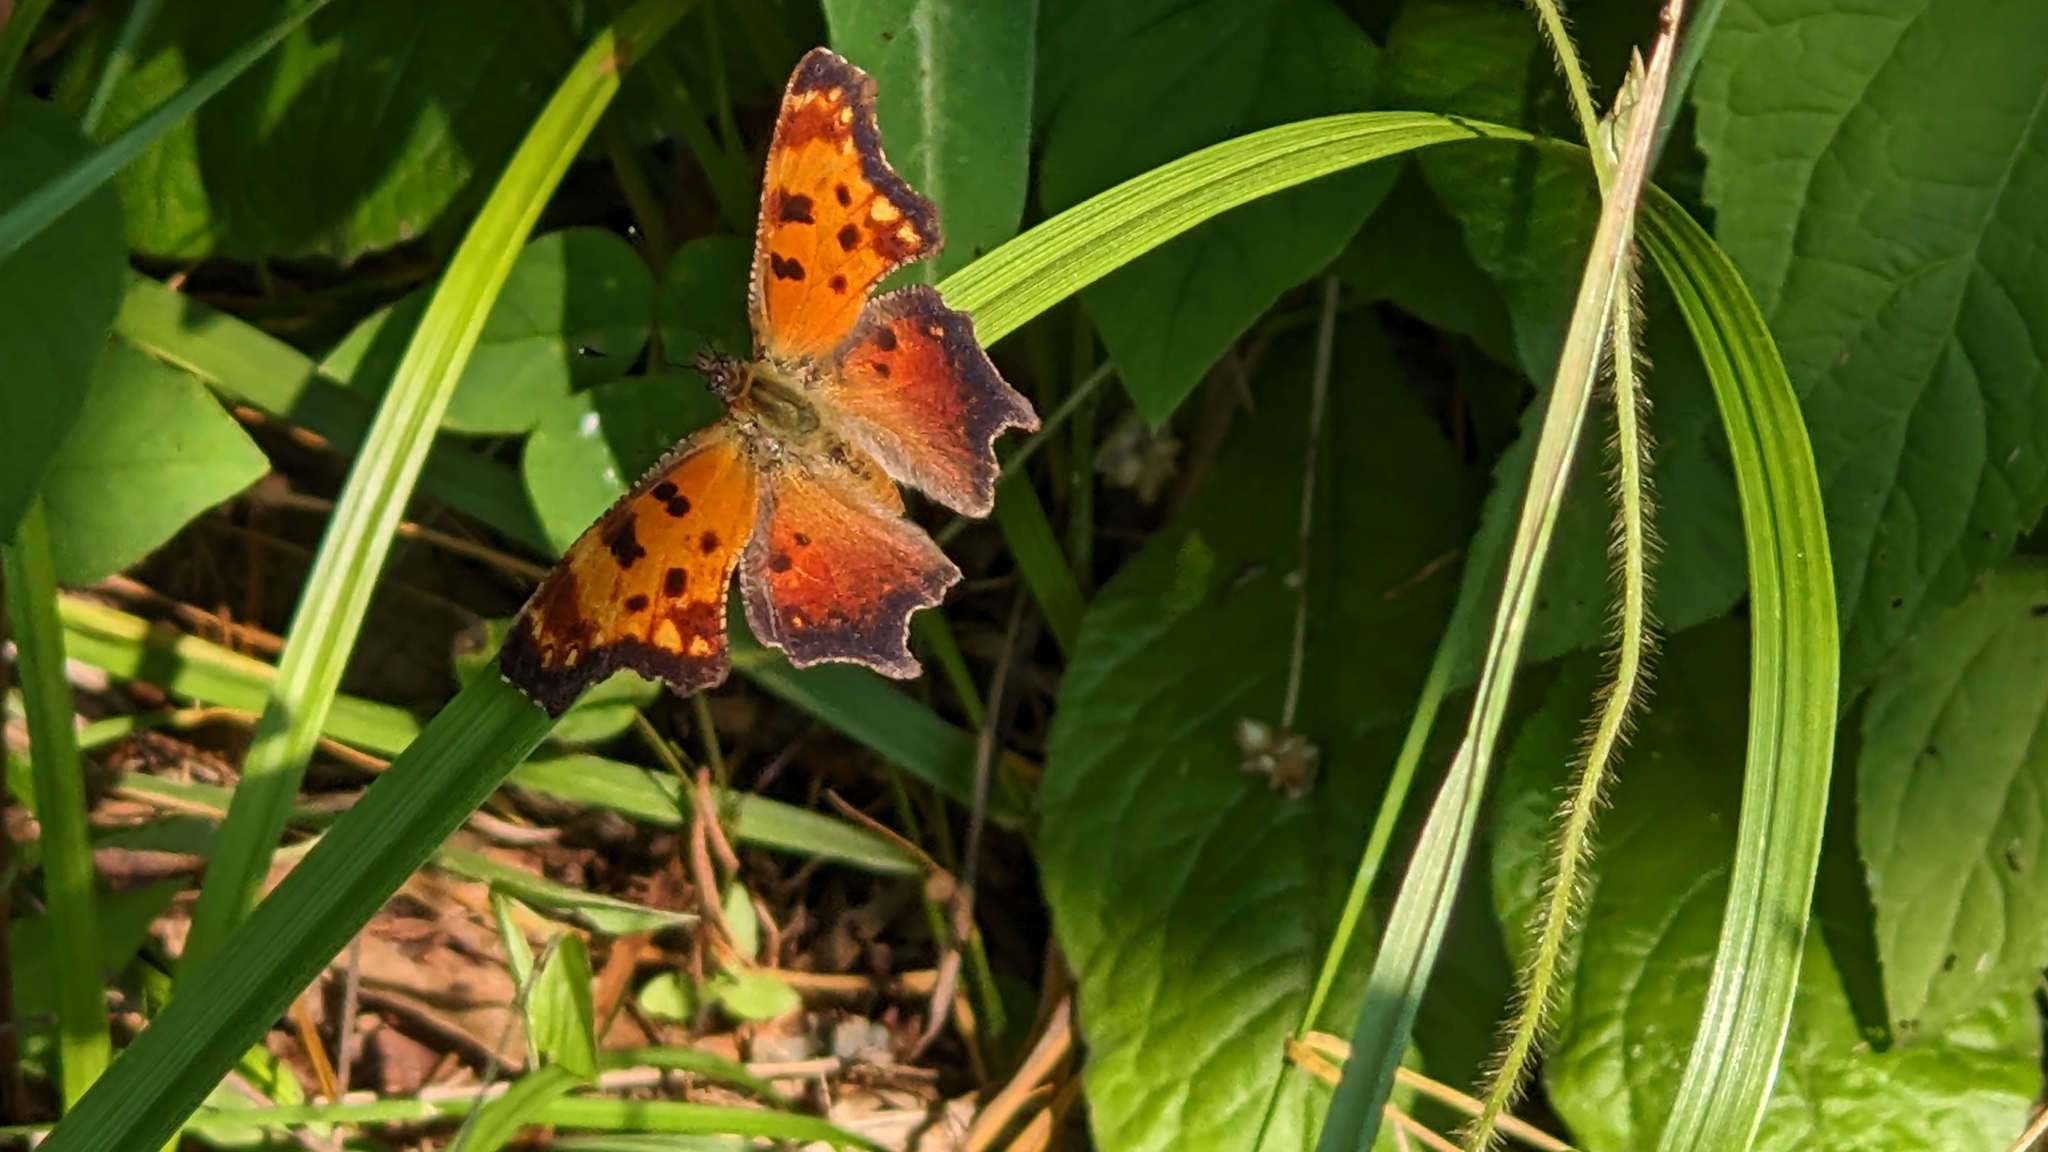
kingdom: Animalia
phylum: Arthropoda
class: Insecta
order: Lepidoptera
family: Nymphalidae
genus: Polygonia
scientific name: Polygonia progne
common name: Gray comma
